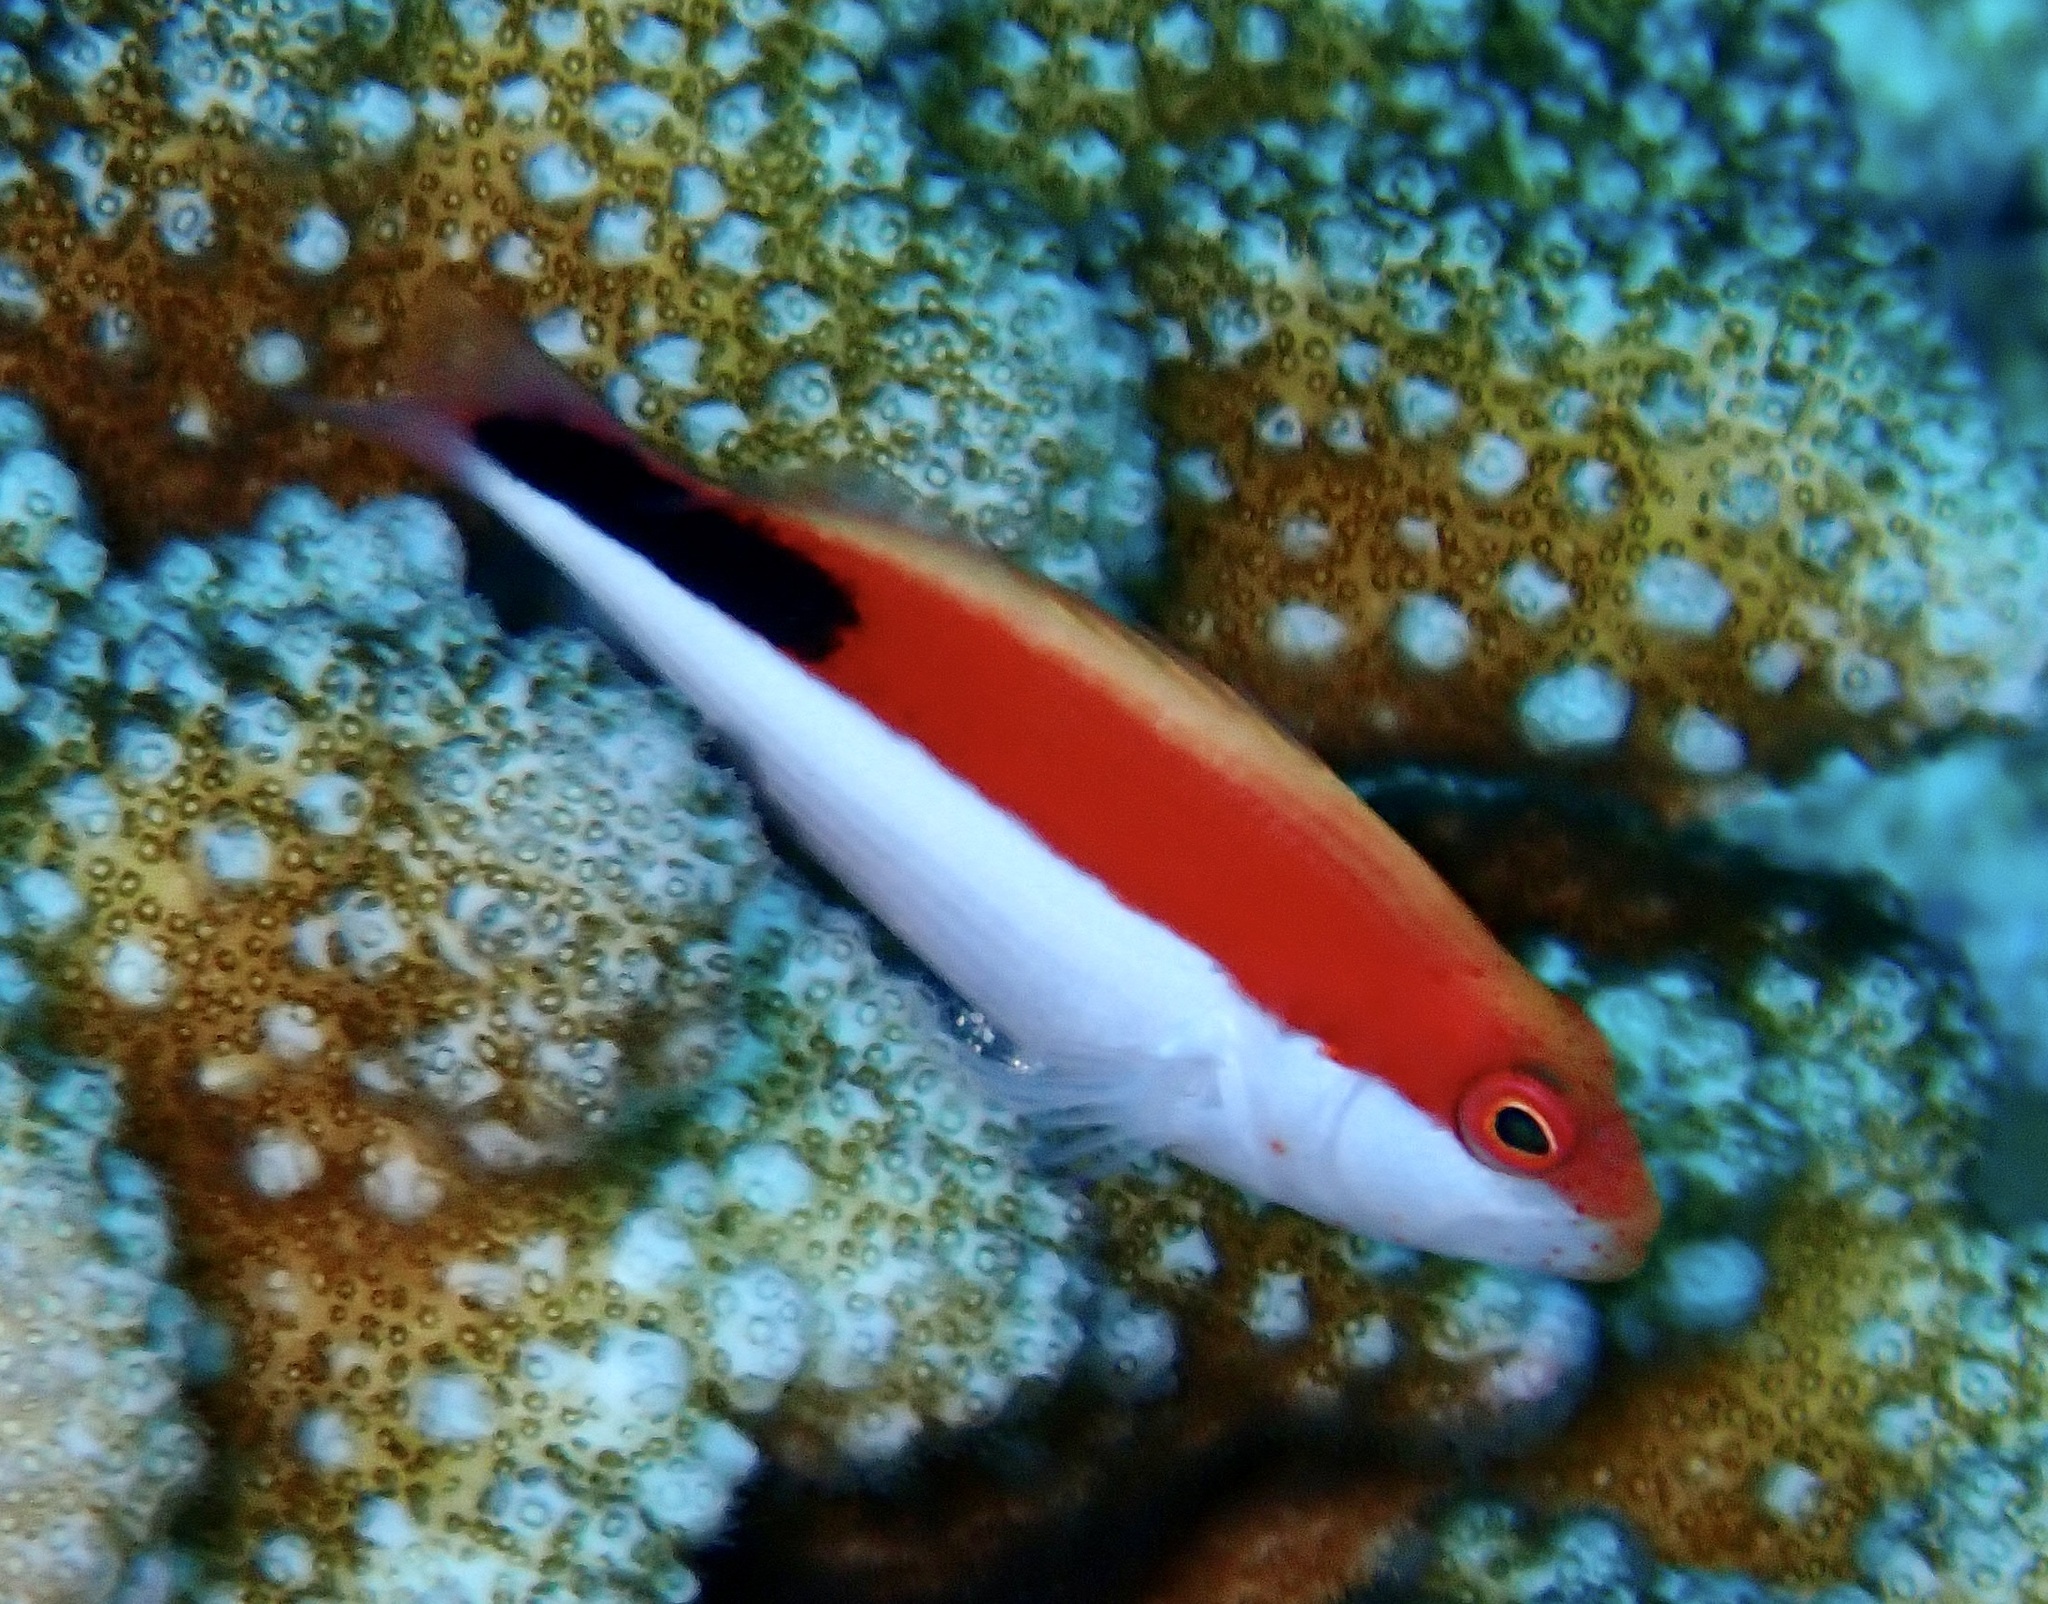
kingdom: Animalia
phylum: Chordata
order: Perciformes
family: Cirrhitidae
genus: Paracirrhites
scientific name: Paracirrhites forsteri
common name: Freckled hawkfish
